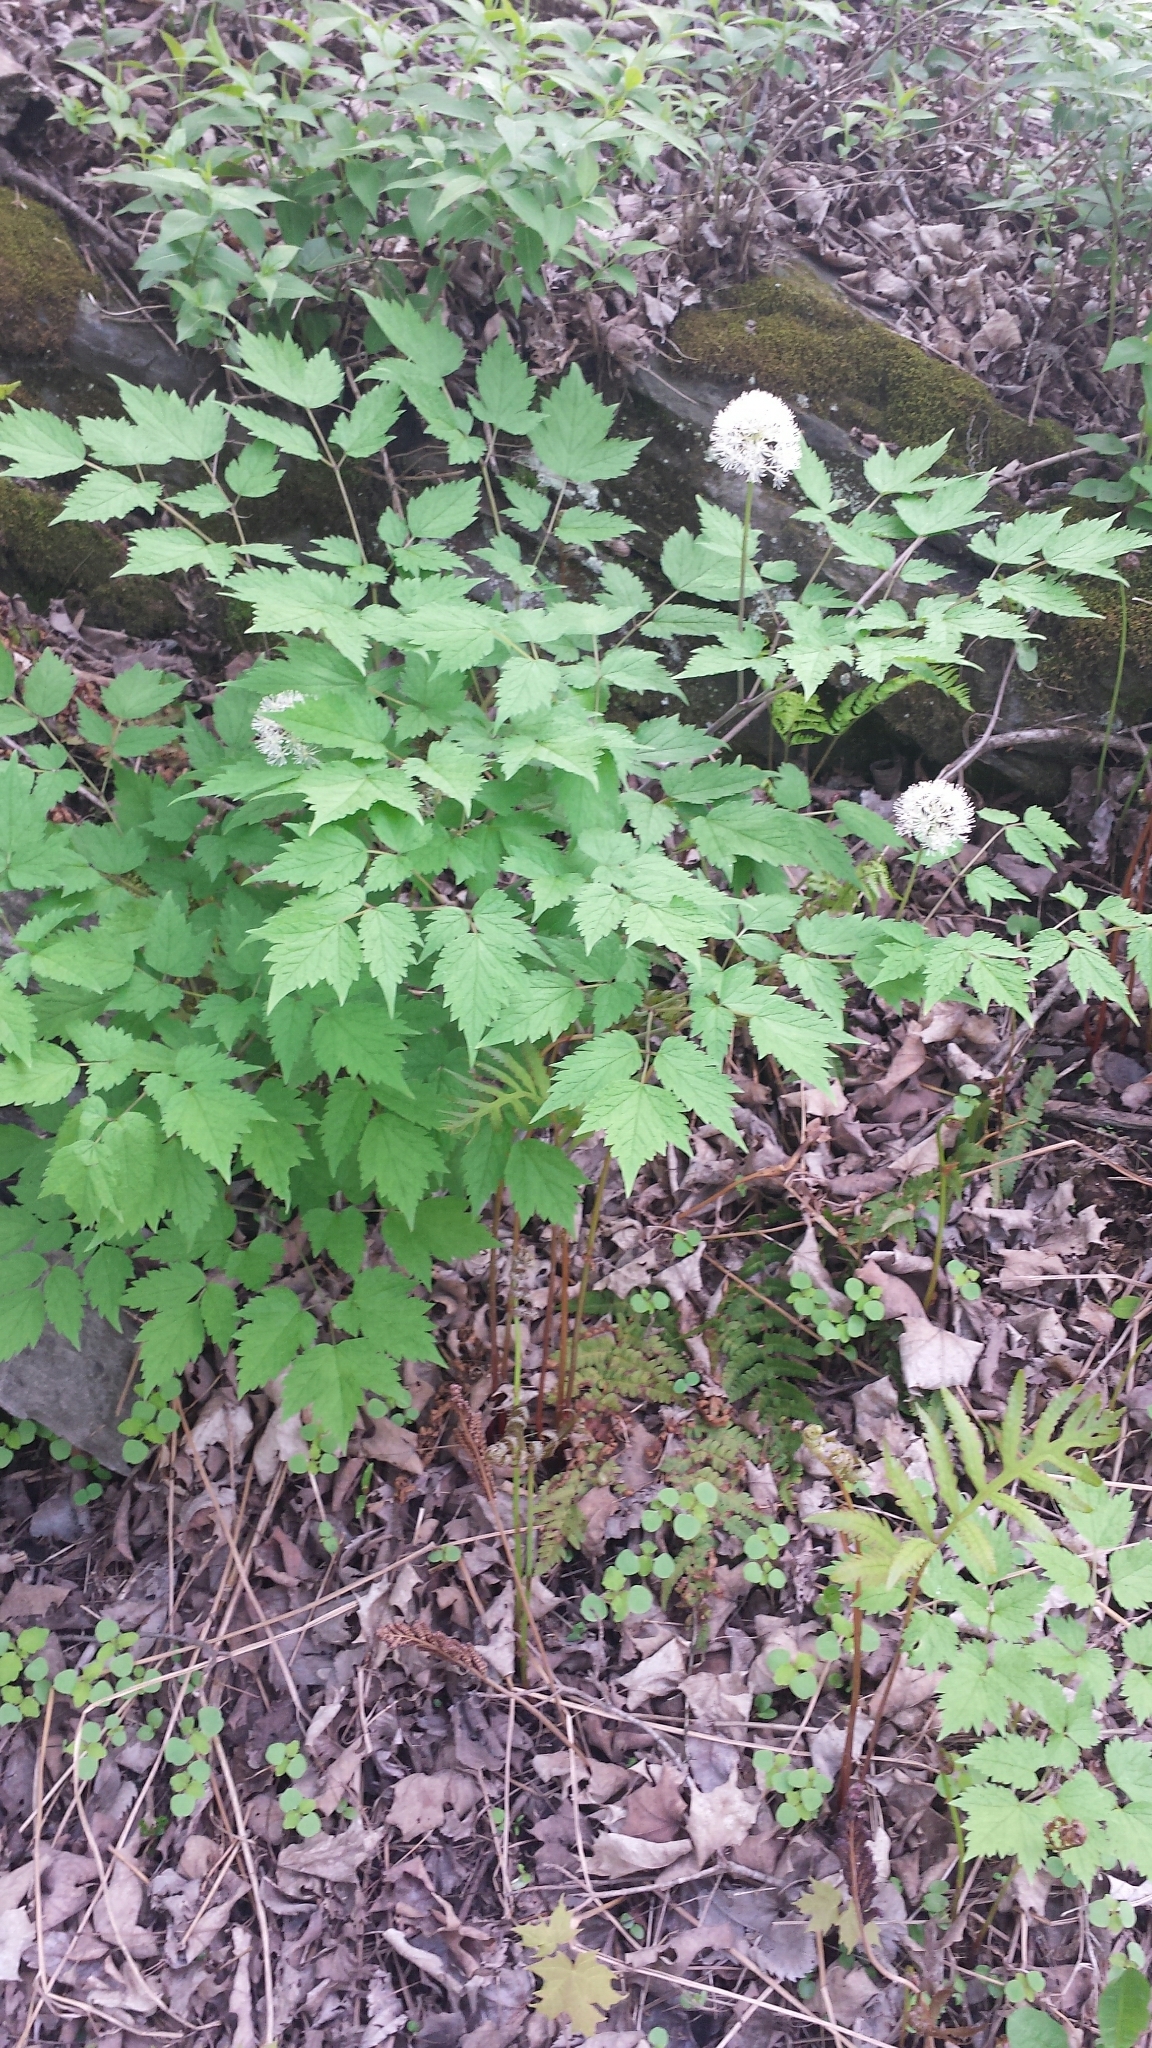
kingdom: Plantae
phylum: Tracheophyta
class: Magnoliopsida
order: Ranunculales
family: Ranunculaceae
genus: Actaea
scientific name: Actaea rubra
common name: Red baneberry
